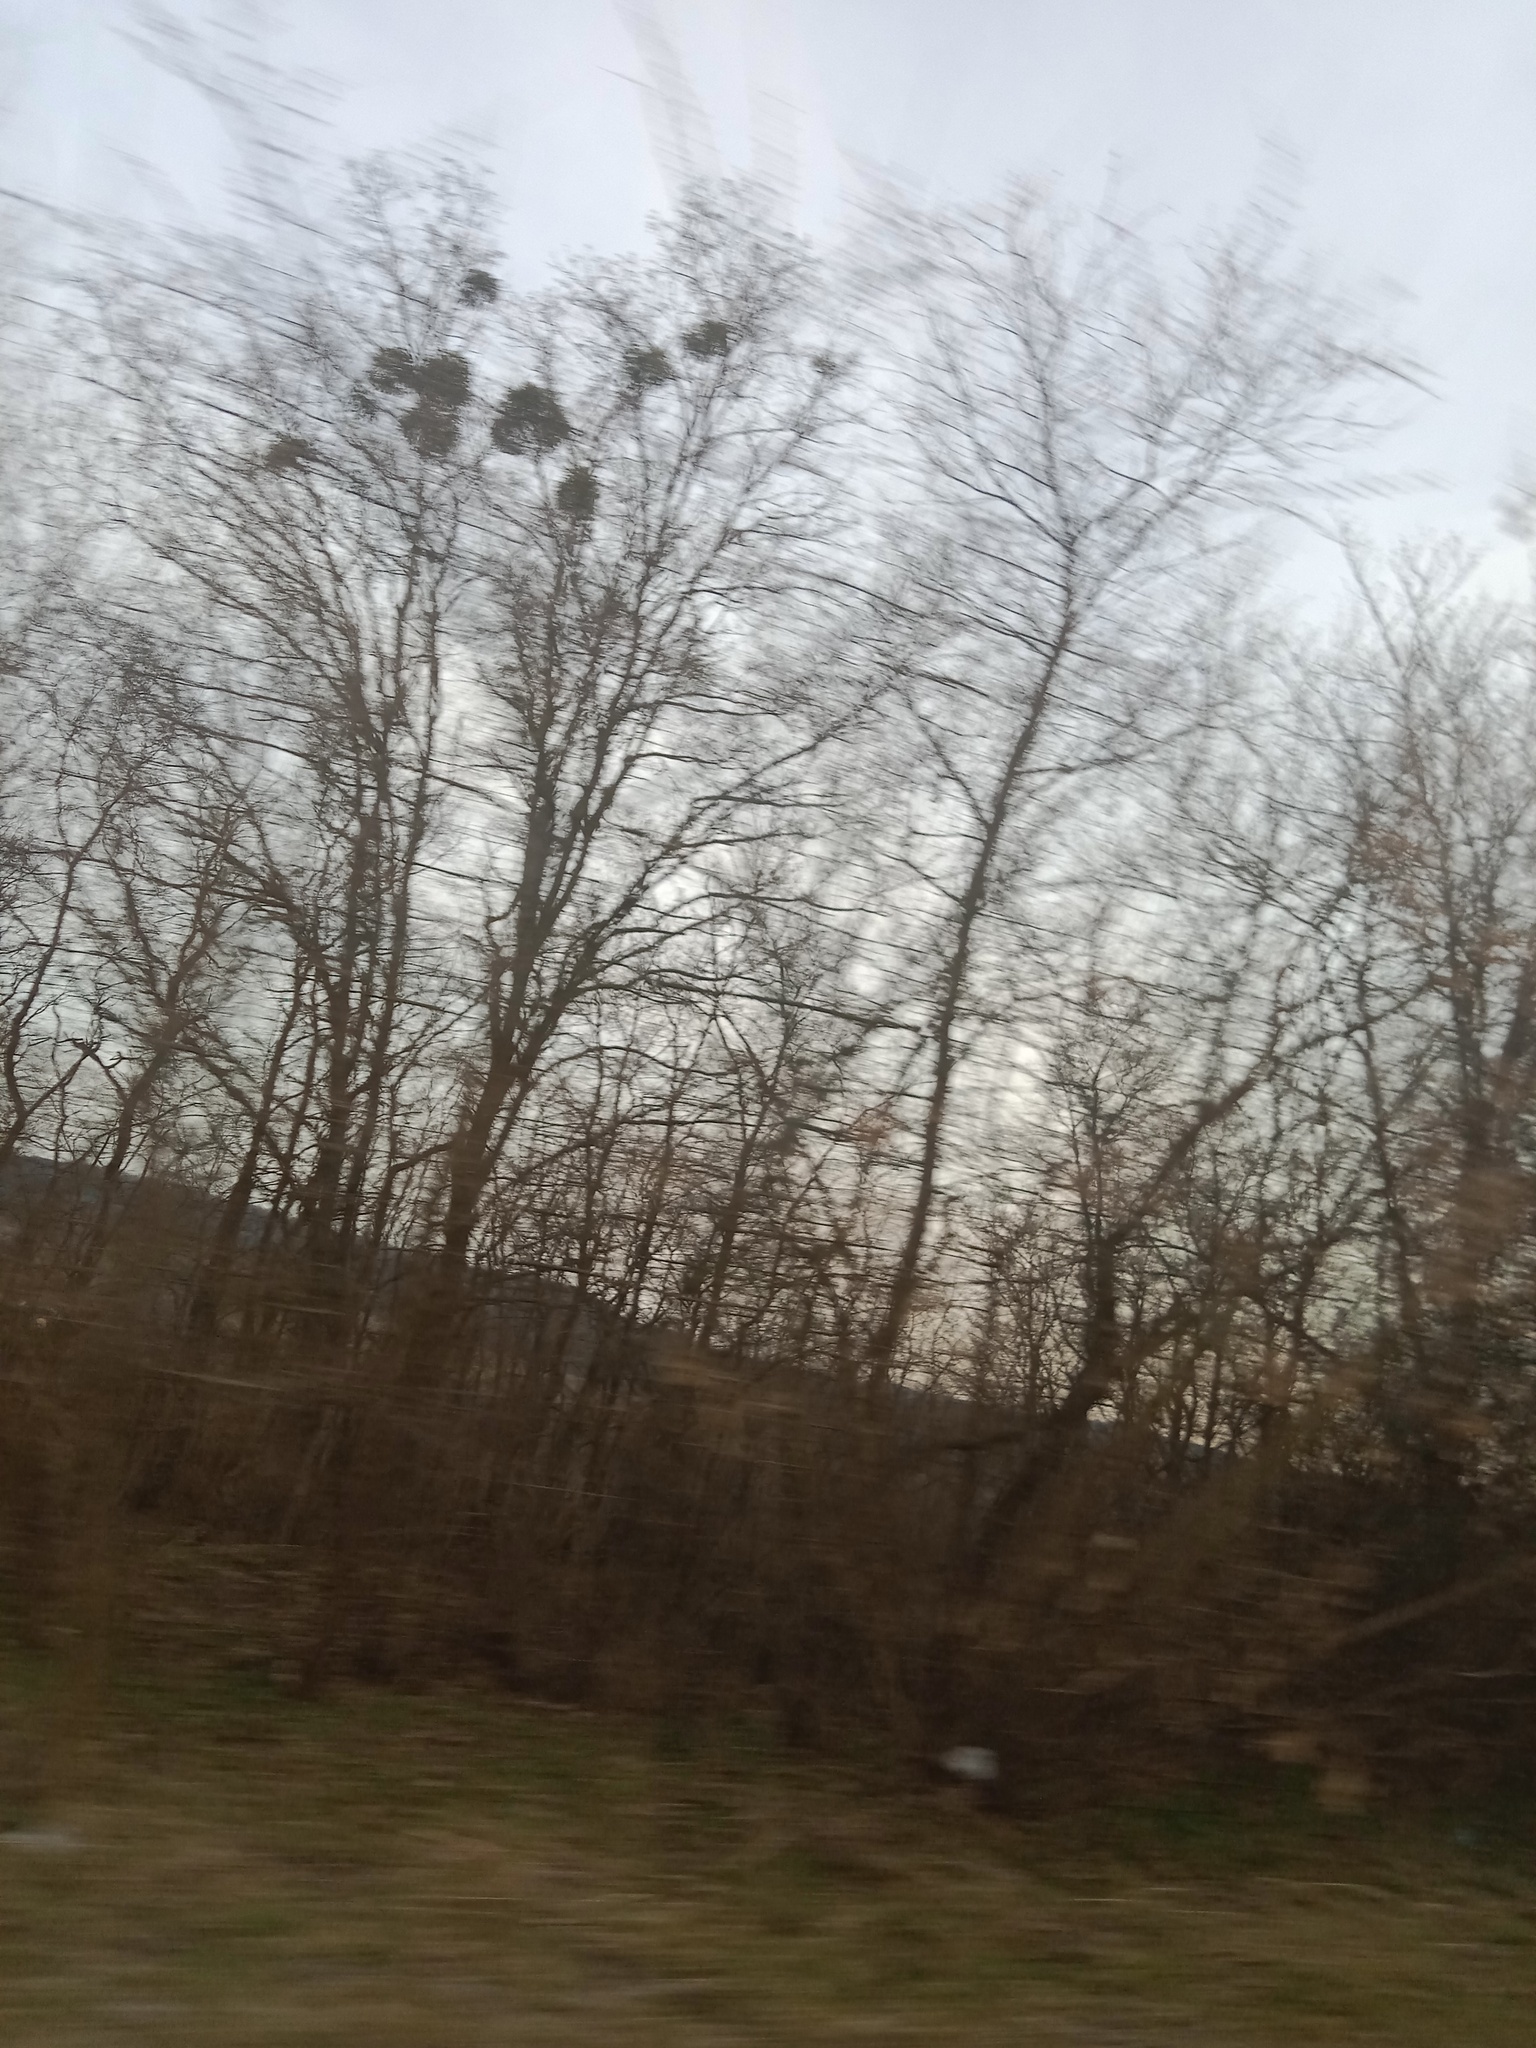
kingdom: Plantae
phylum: Tracheophyta
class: Magnoliopsida
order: Santalales
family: Viscaceae
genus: Viscum
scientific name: Viscum album
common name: Mistletoe
